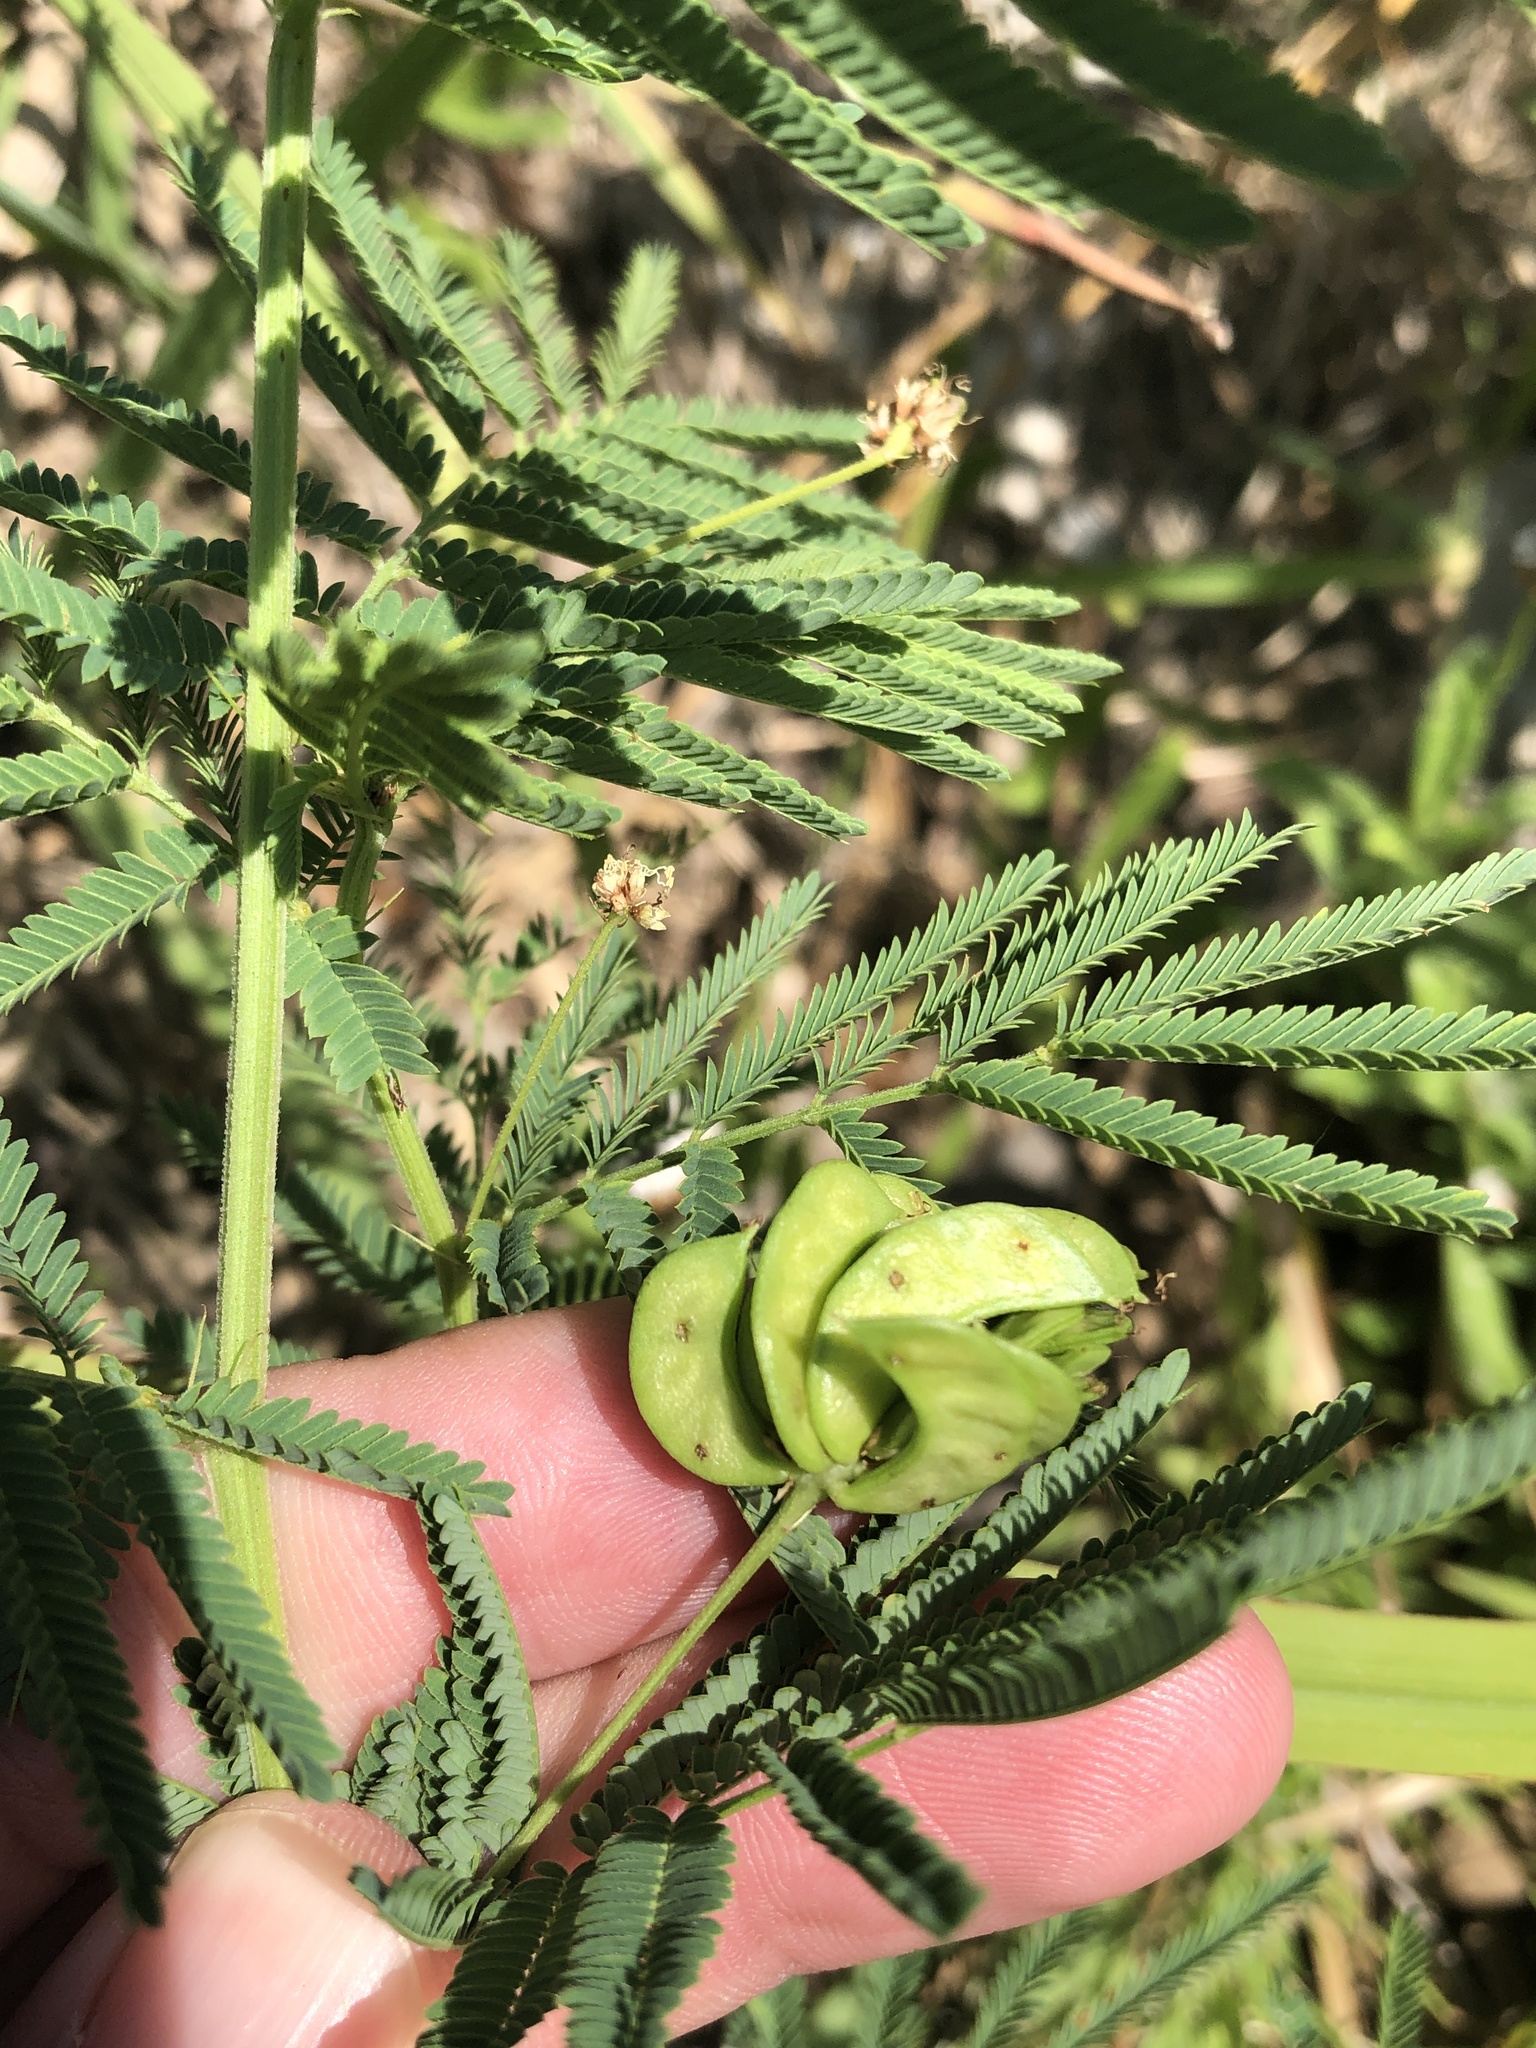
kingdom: Plantae
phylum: Tracheophyta
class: Magnoliopsida
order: Fabales
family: Fabaceae
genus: Desmanthus
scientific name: Desmanthus illinoensis
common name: Illinois bundle-flower
